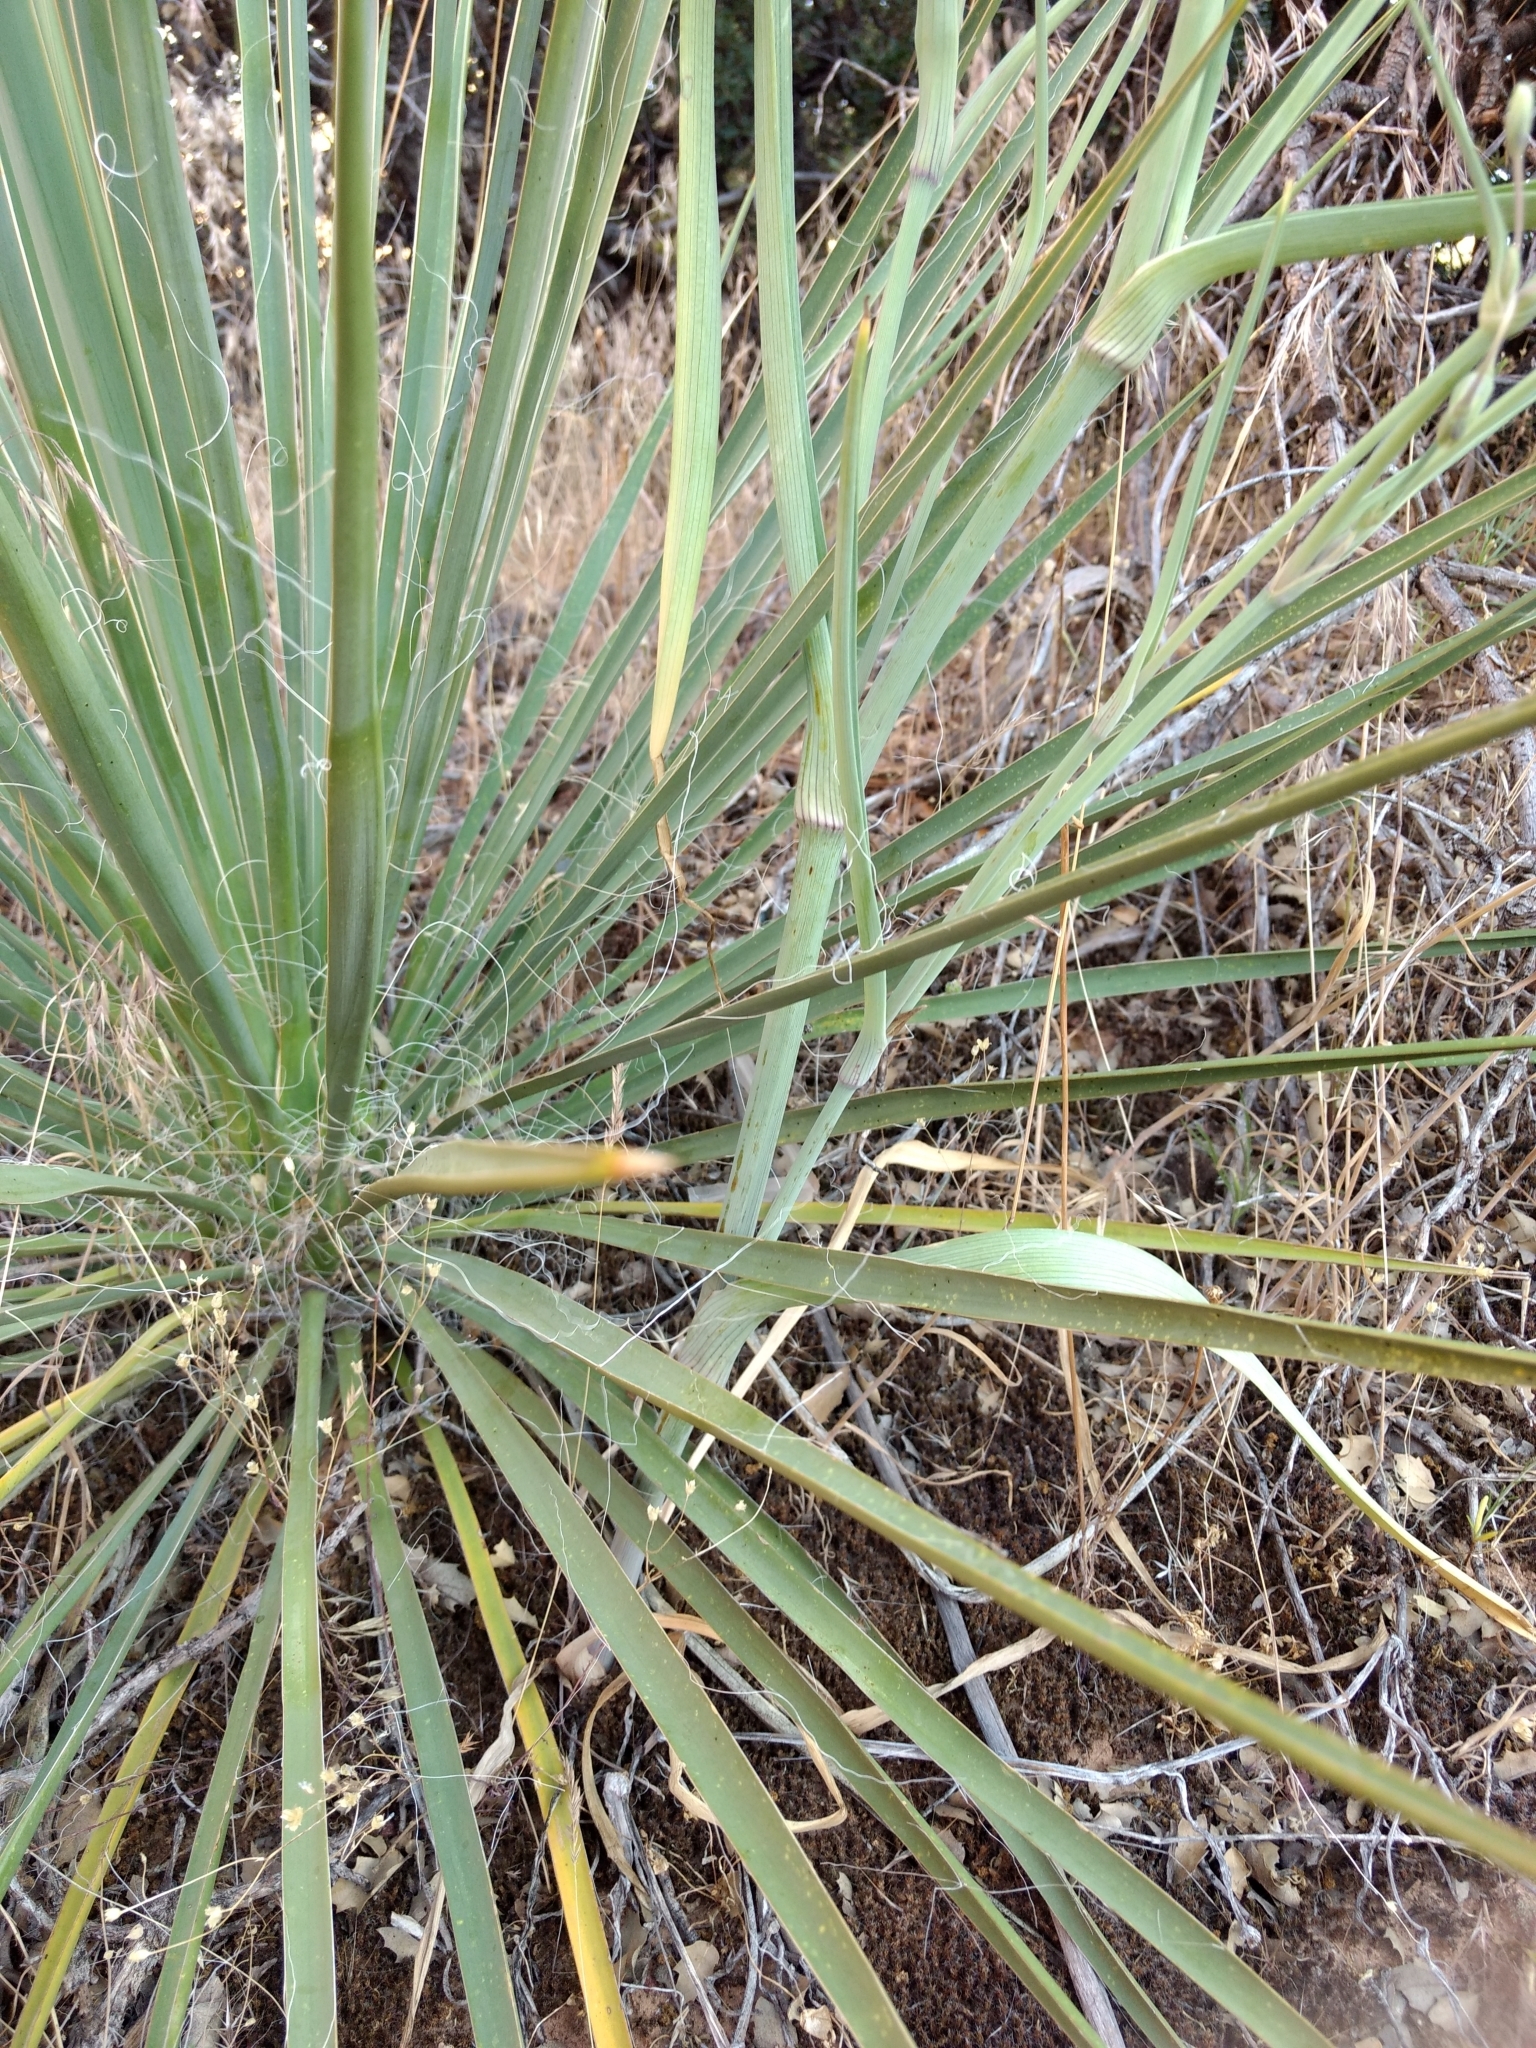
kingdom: Plantae
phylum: Tracheophyta
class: Liliopsida
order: Commelinales
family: Commelinaceae
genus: Tradescantia
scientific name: Tradescantia occidentalis
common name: Prairie spiderwort
